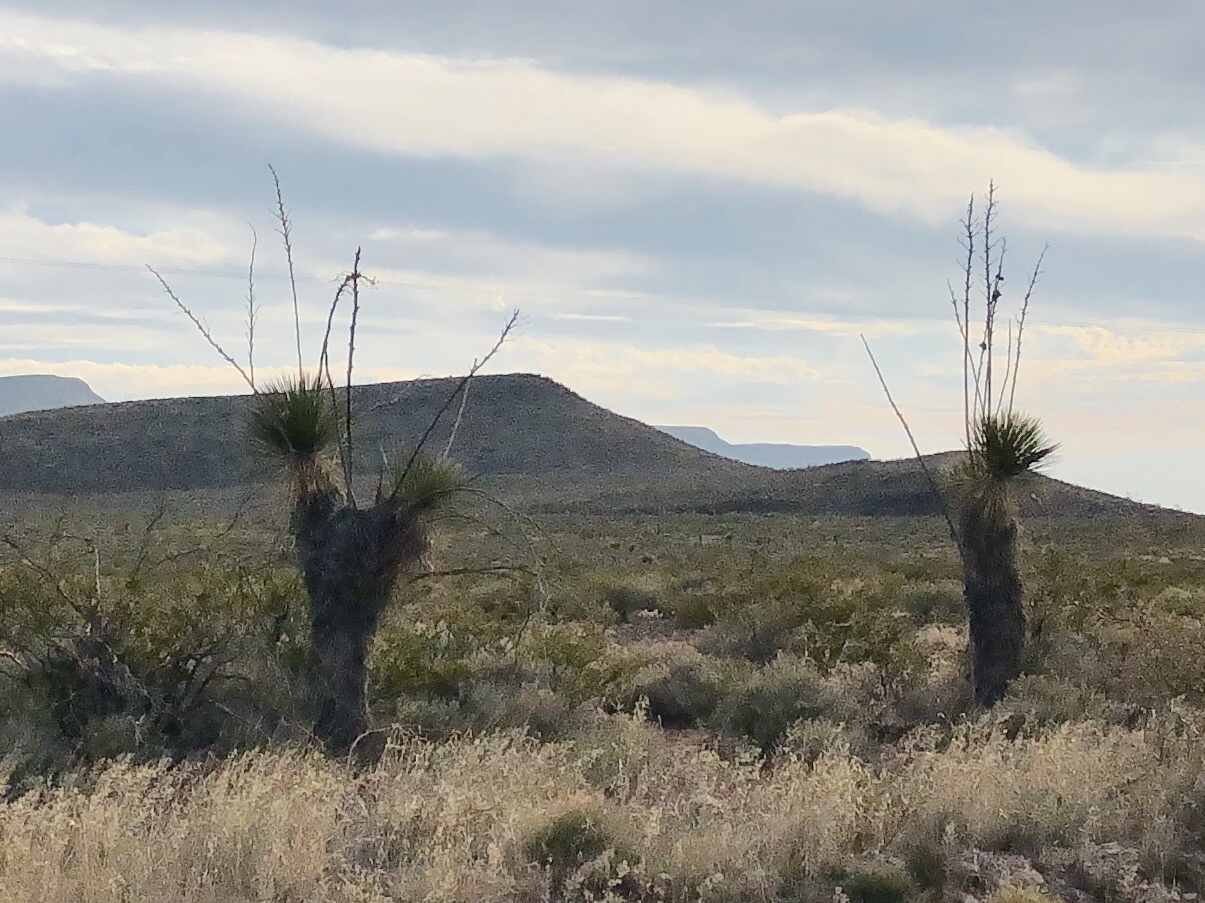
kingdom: Plantae
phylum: Tracheophyta
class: Liliopsida
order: Asparagales
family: Asparagaceae
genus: Yucca
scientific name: Yucca elata
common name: Palmella
